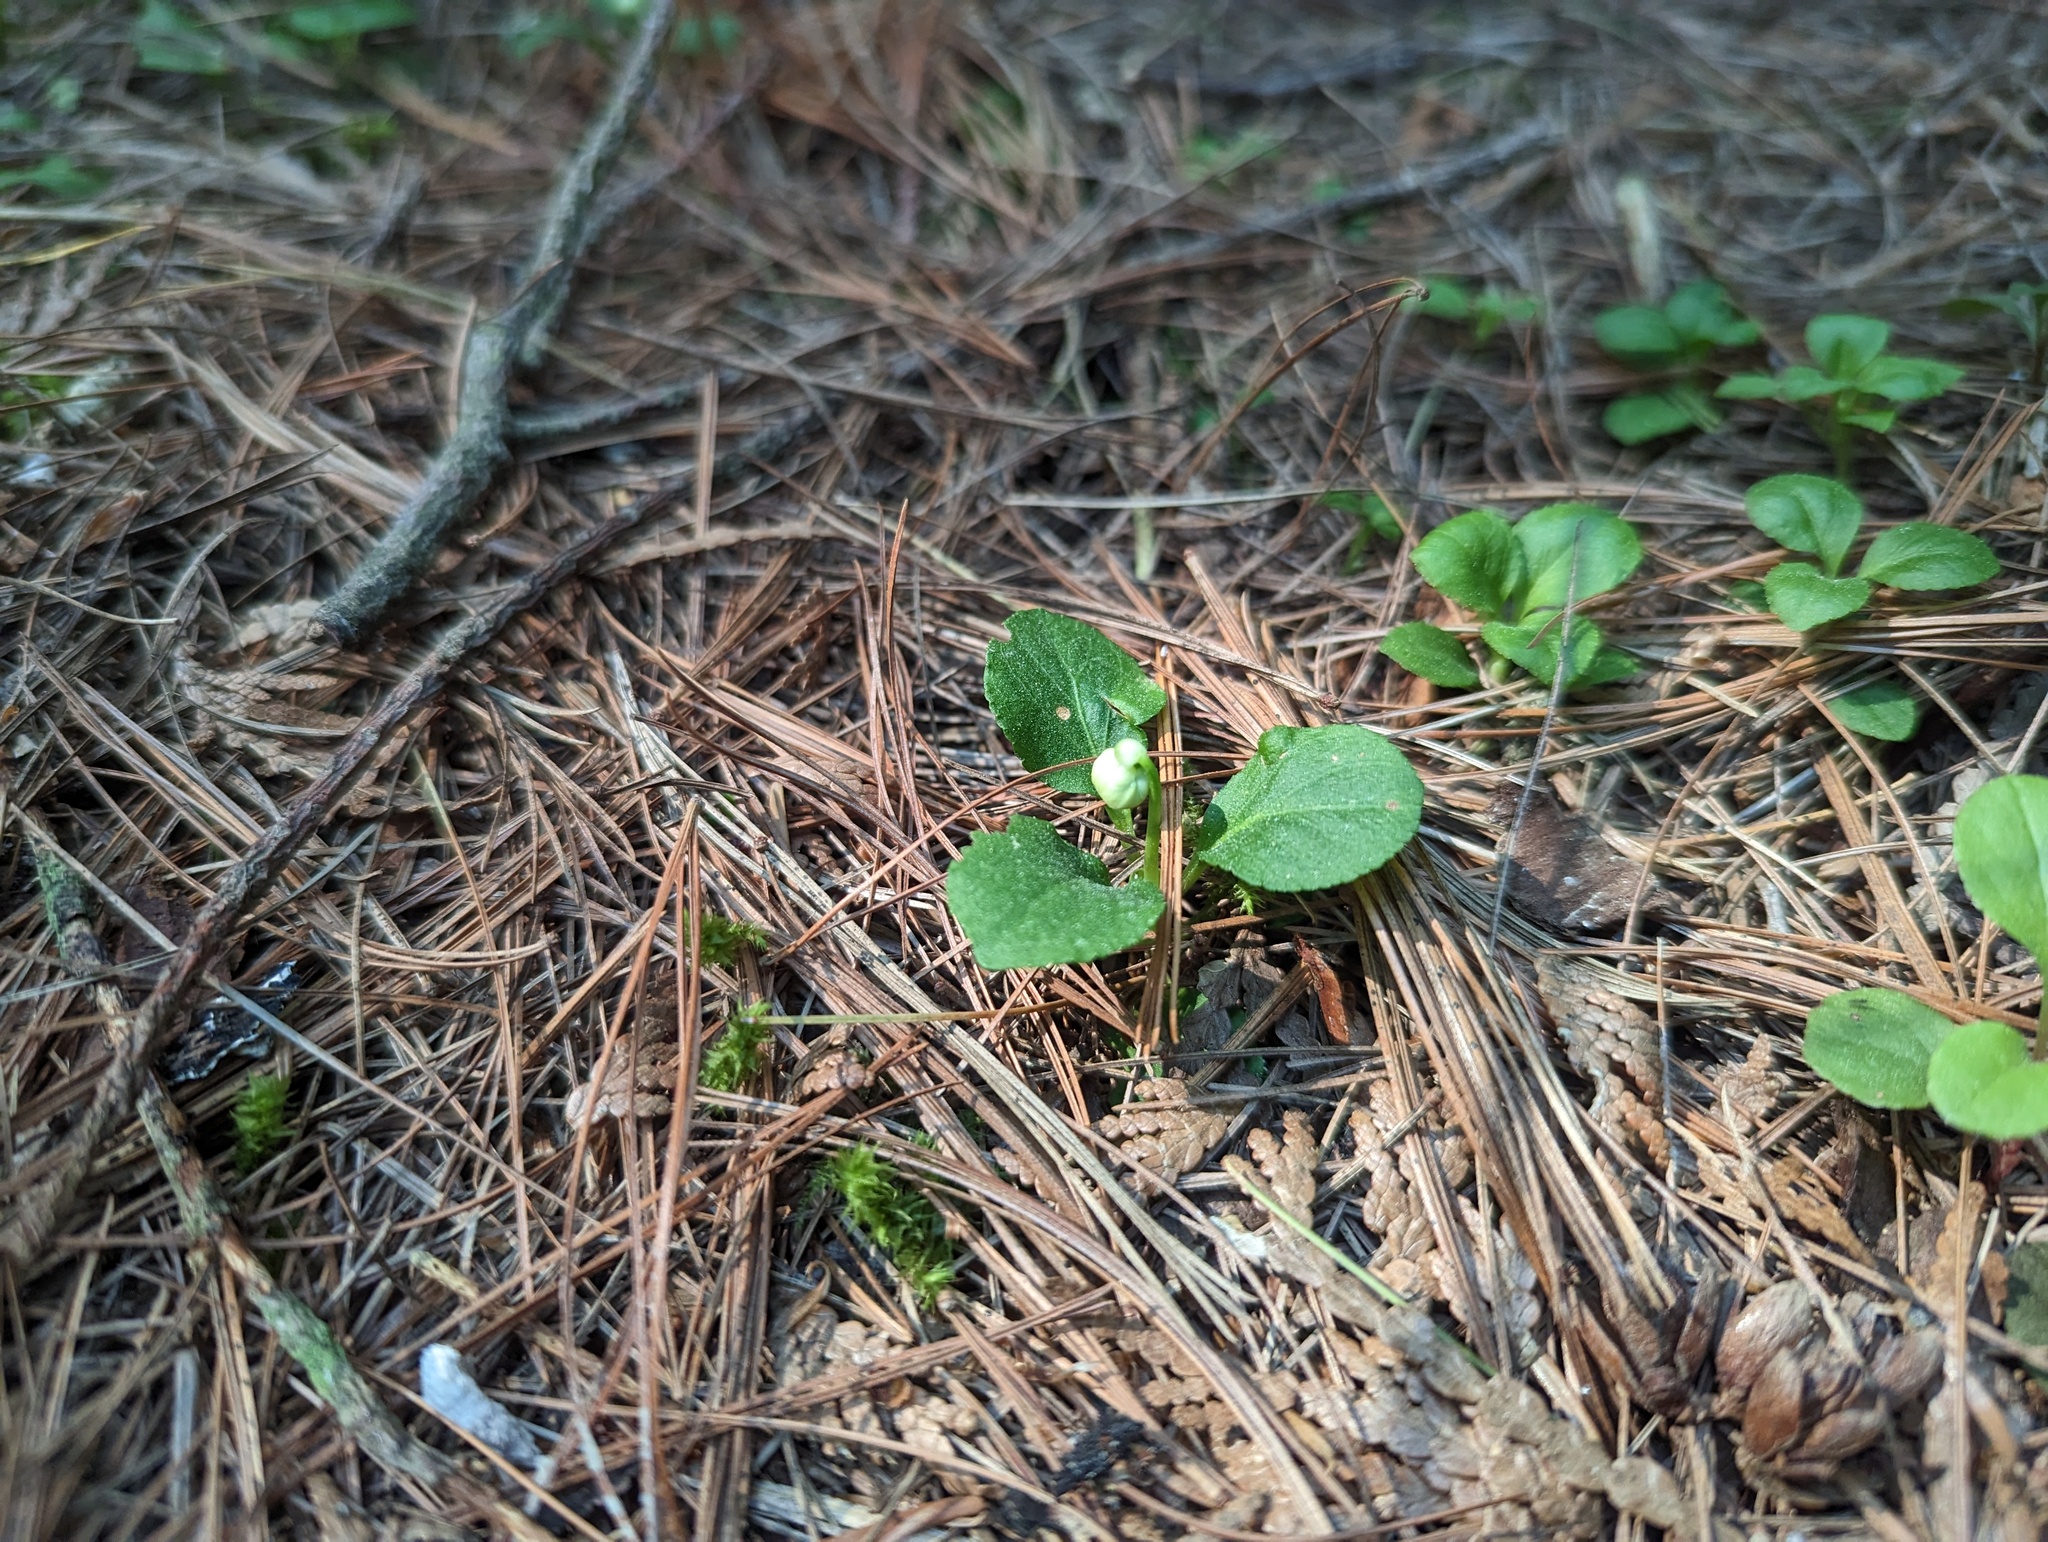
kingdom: Plantae
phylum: Tracheophyta
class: Magnoliopsida
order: Ericales
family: Ericaceae
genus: Moneses
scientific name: Moneses uniflora
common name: One-flowered wintergreen
